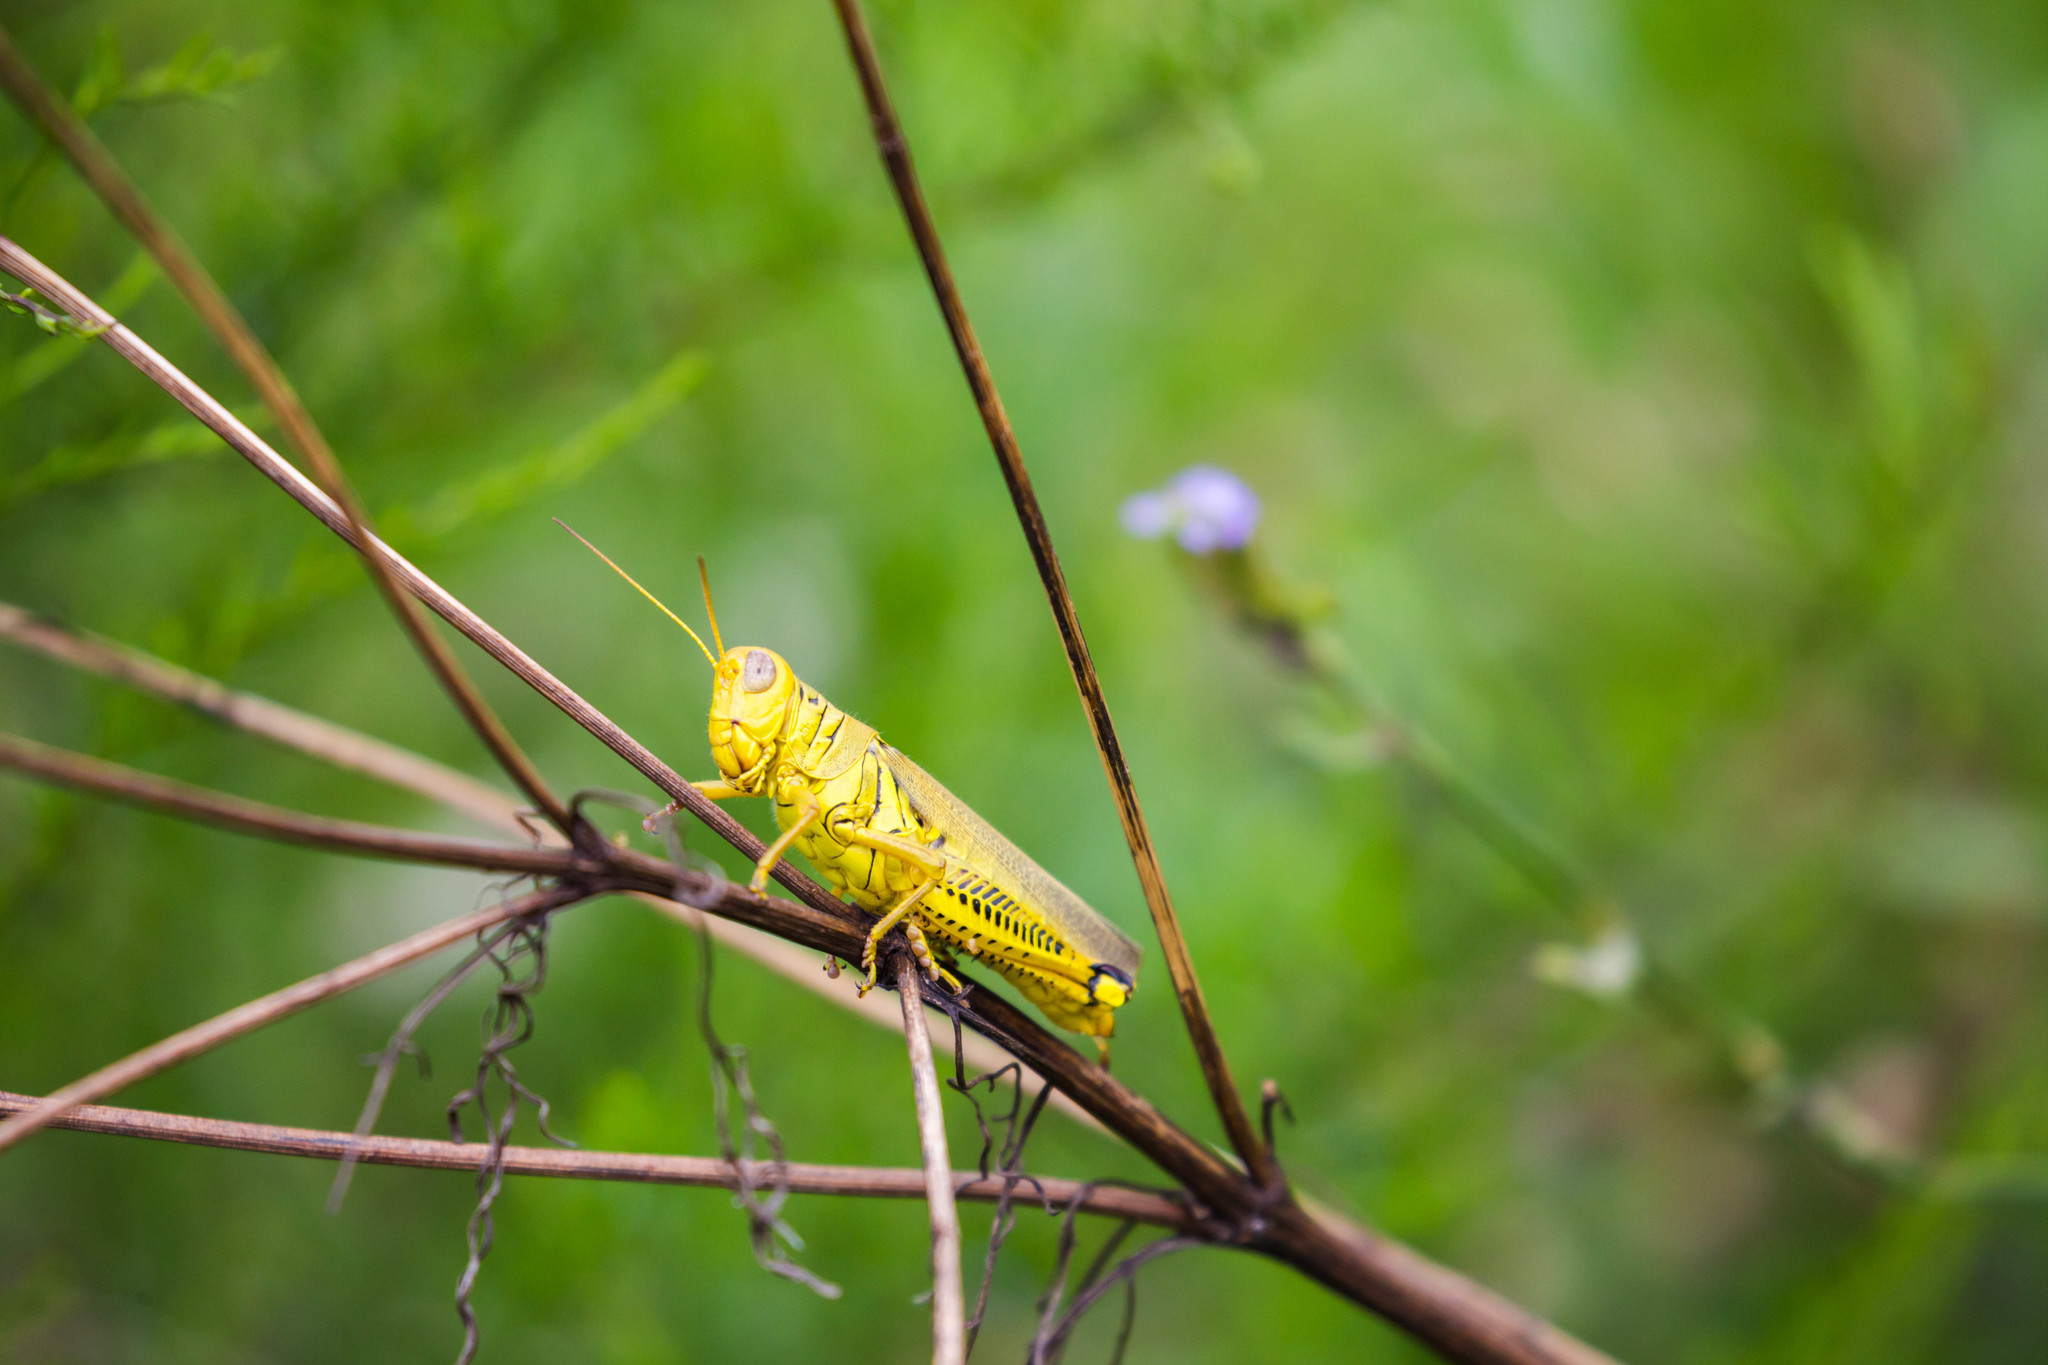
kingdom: Animalia
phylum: Arthropoda
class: Insecta
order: Orthoptera
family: Acrididae
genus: Melanoplus
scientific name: Melanoplus differentialis
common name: Differential grasshopper
